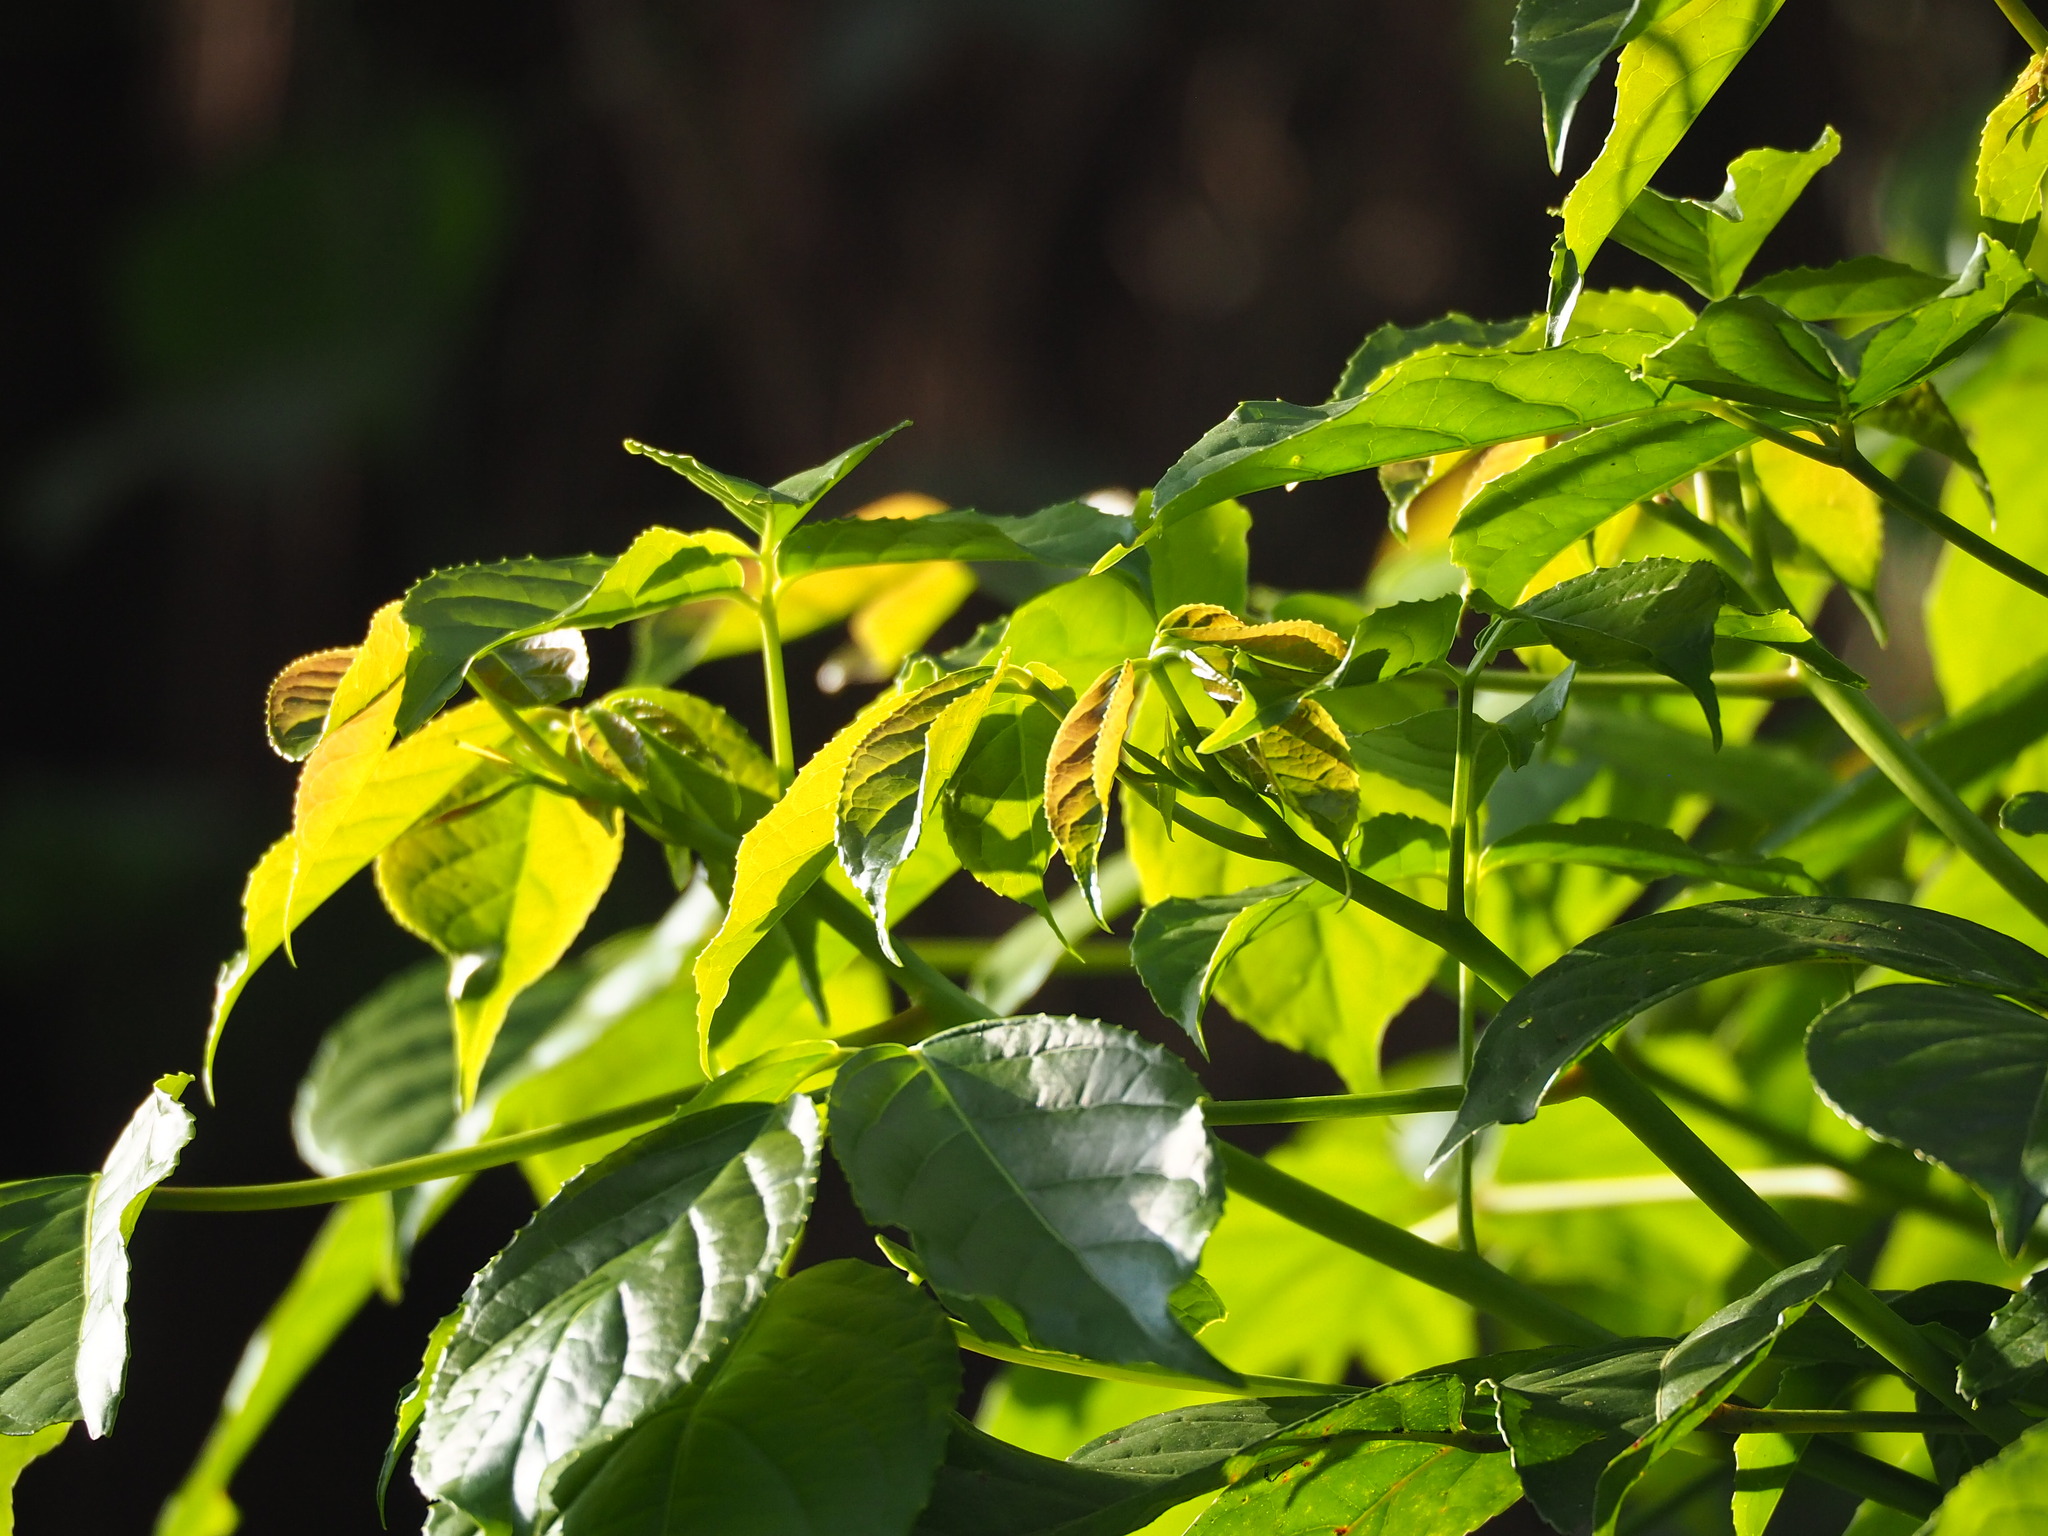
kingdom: Plantae
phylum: Tracheophyta
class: Magnoliopsida
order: Malpighiales
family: Phyllanthaceae
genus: Bischofia
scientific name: Bischofia javanica
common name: Javanese bishopwood
